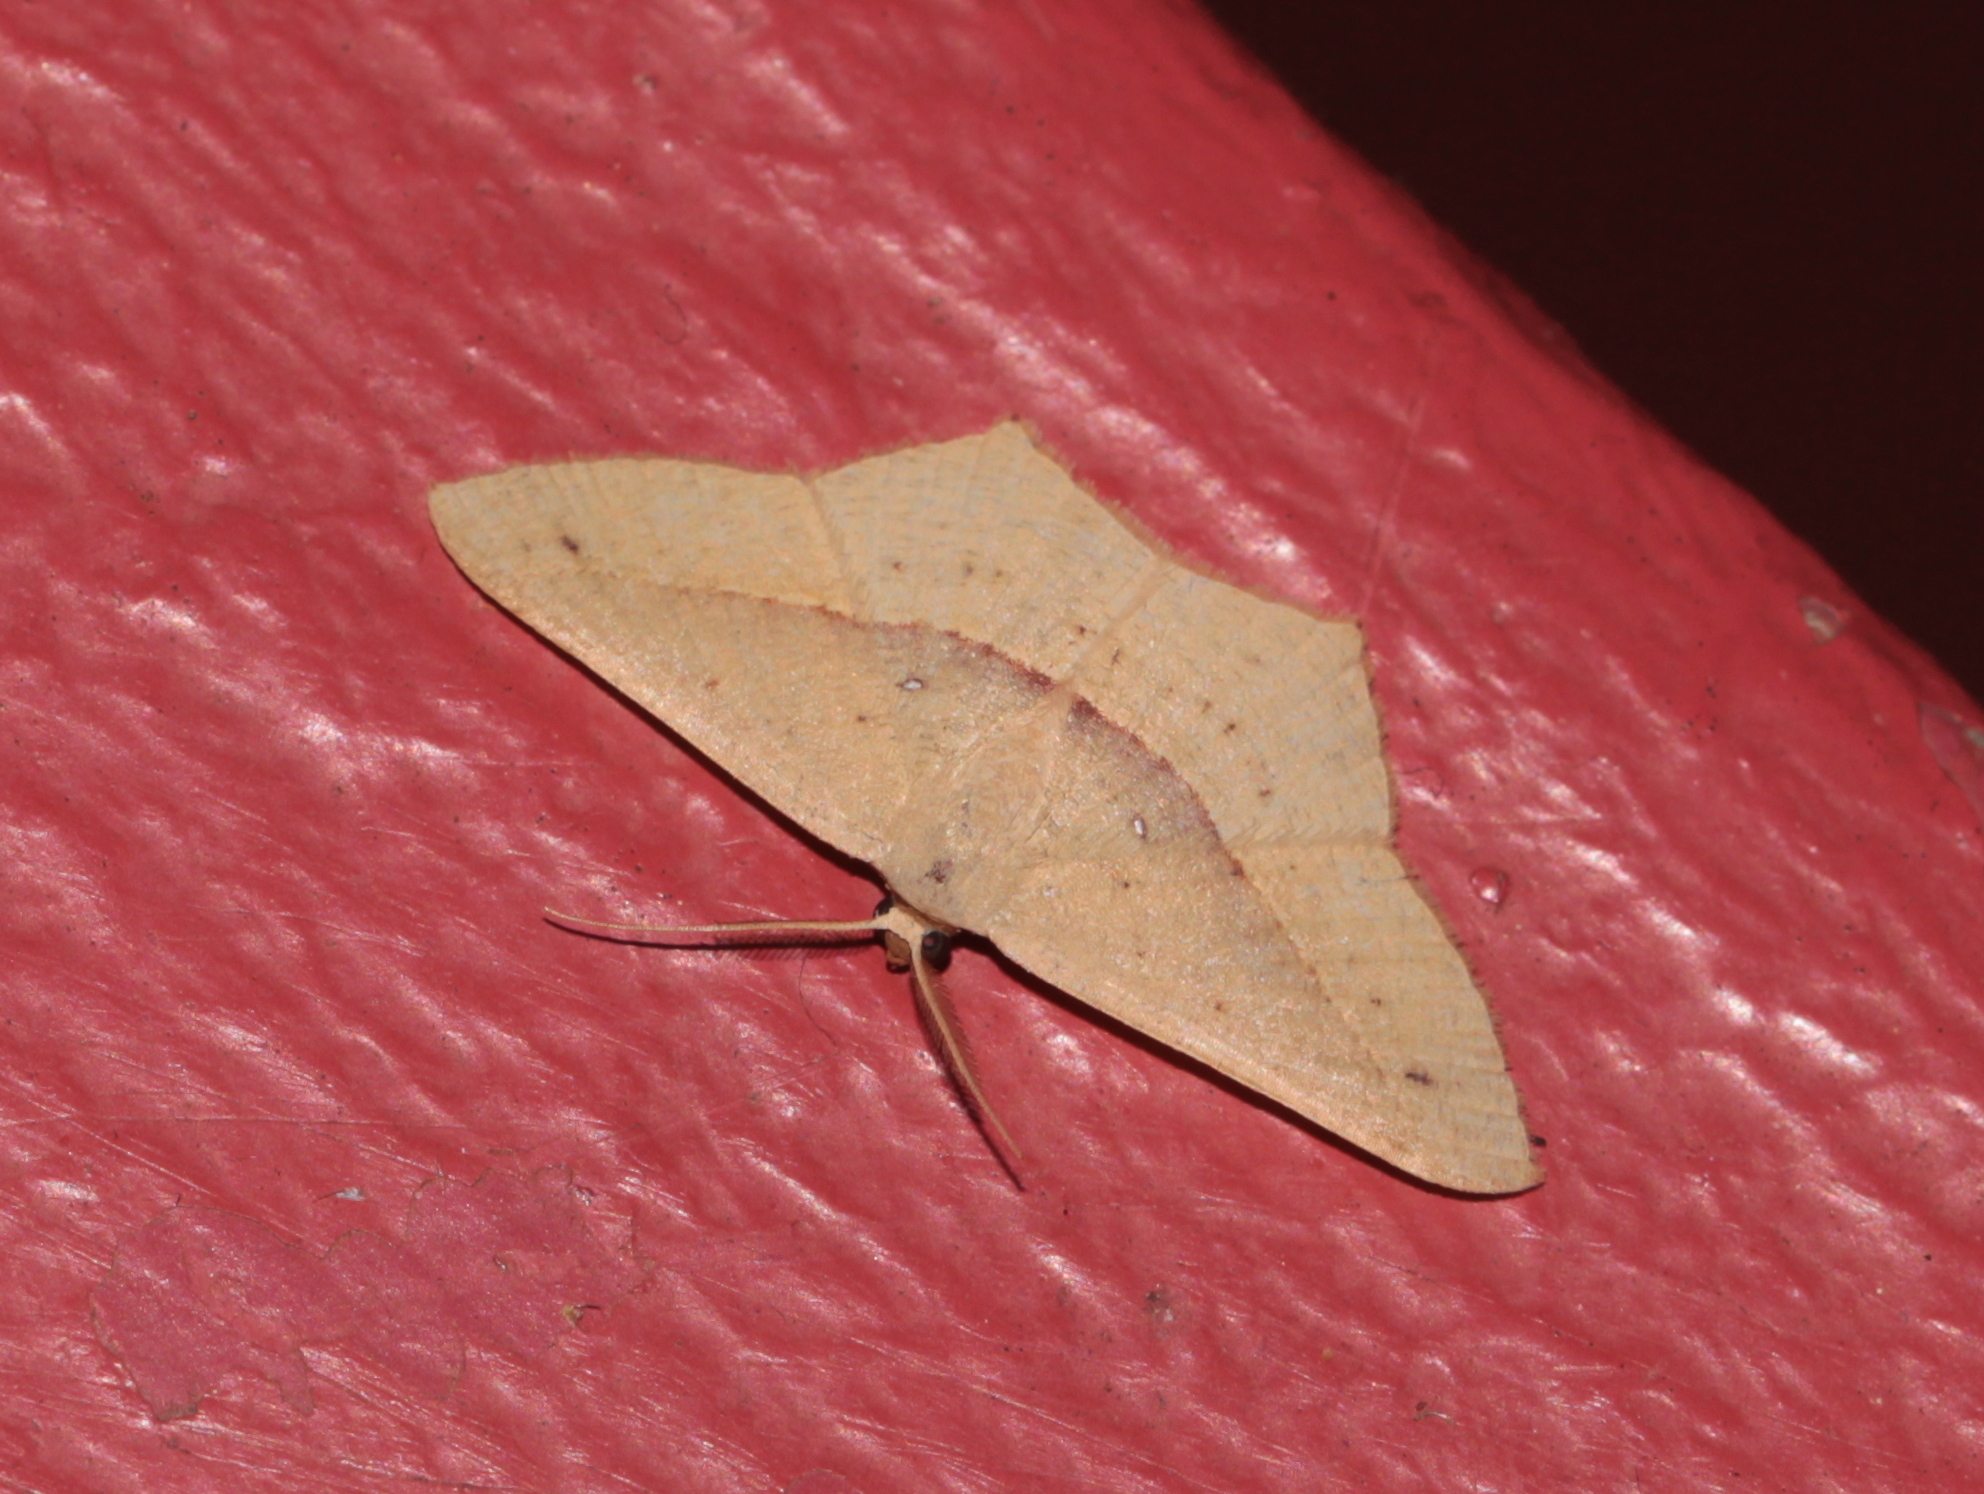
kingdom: Animalia
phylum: Arthropoda
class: Insecta
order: Lepidoptera
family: Geometridae
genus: Traminda
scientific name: Traminda mundissima
